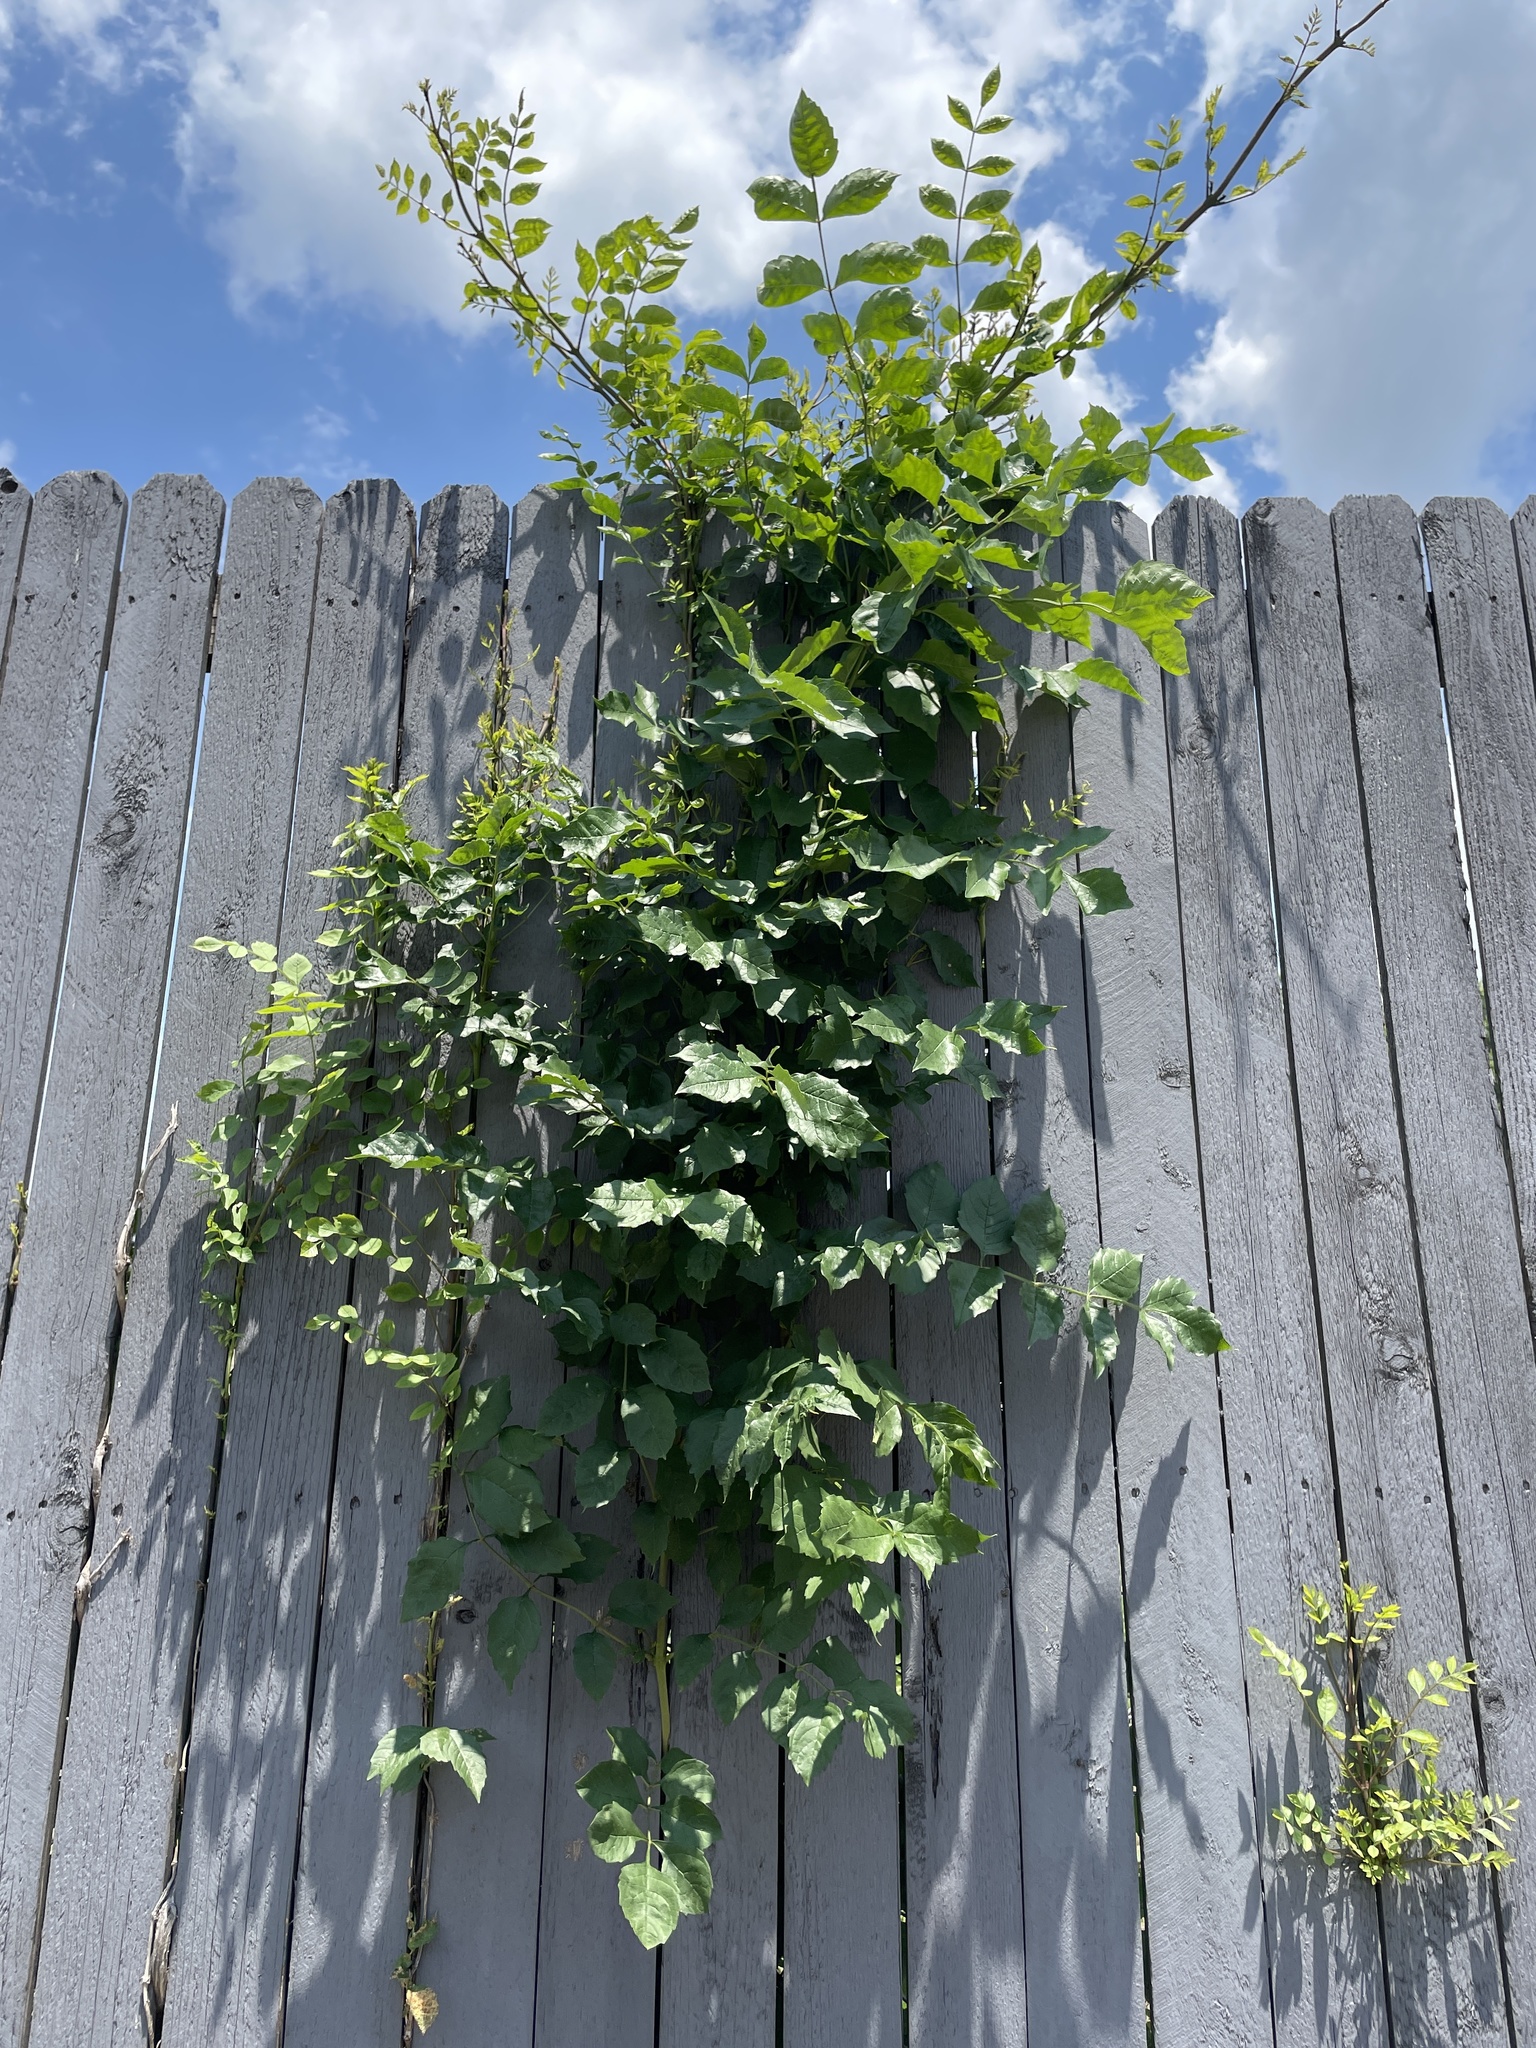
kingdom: Plantae
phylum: Tracheophyta
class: Magnoliopsida
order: Lamiales
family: Bignoniaceae
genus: Campsis
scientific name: Campsis radicans
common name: Trumpet-creeper
